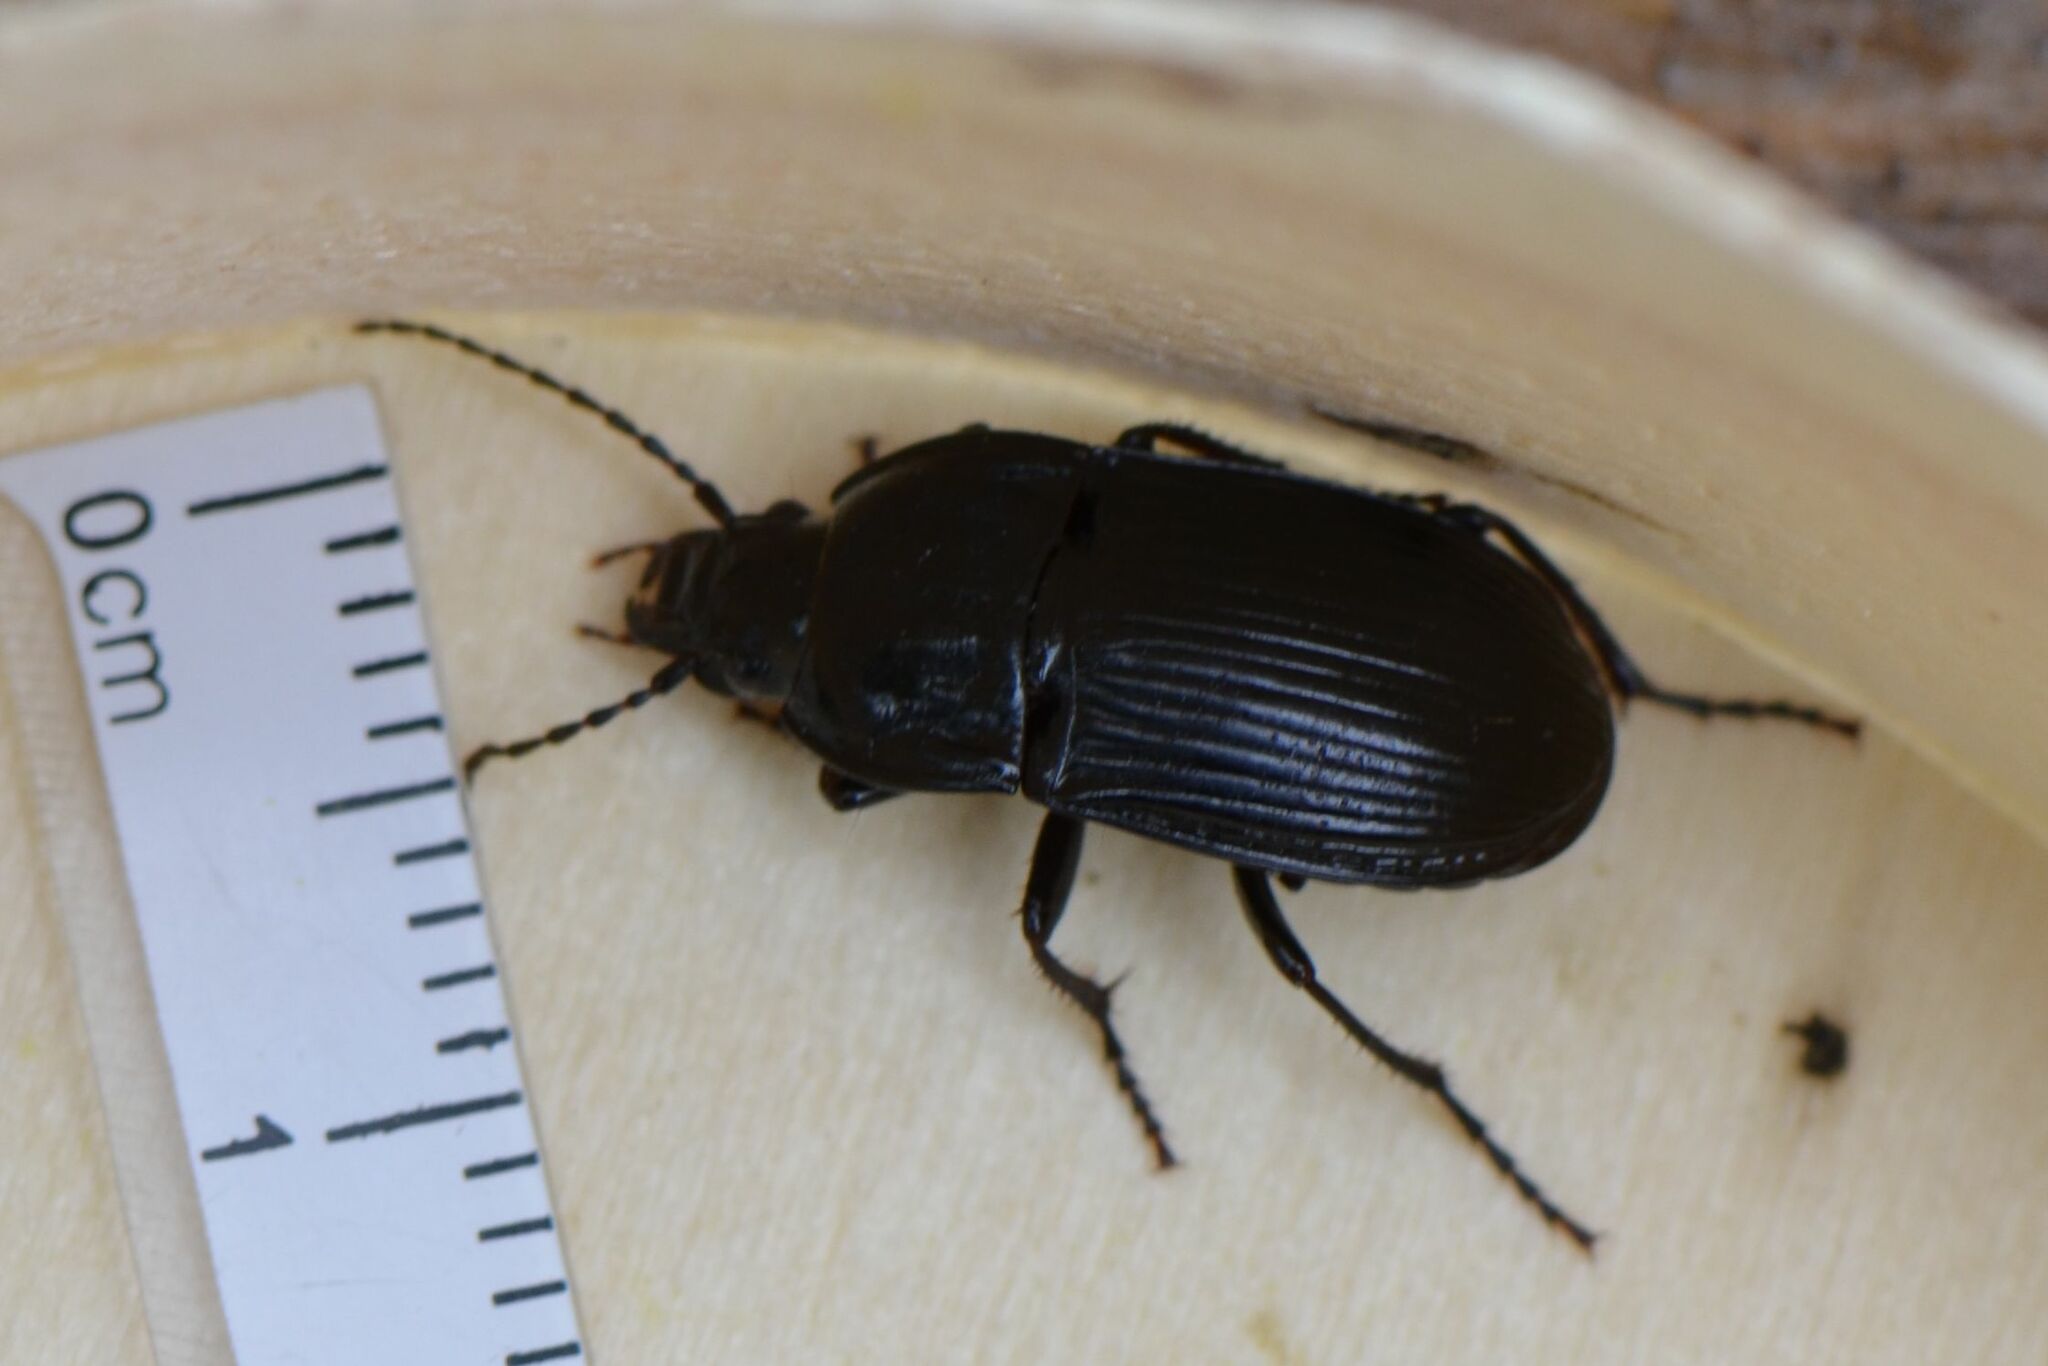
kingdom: Animalia
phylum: Arthropoda
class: Insecta
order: Coleoptera
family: Carabidae
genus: Abax
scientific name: Abax ovalis
